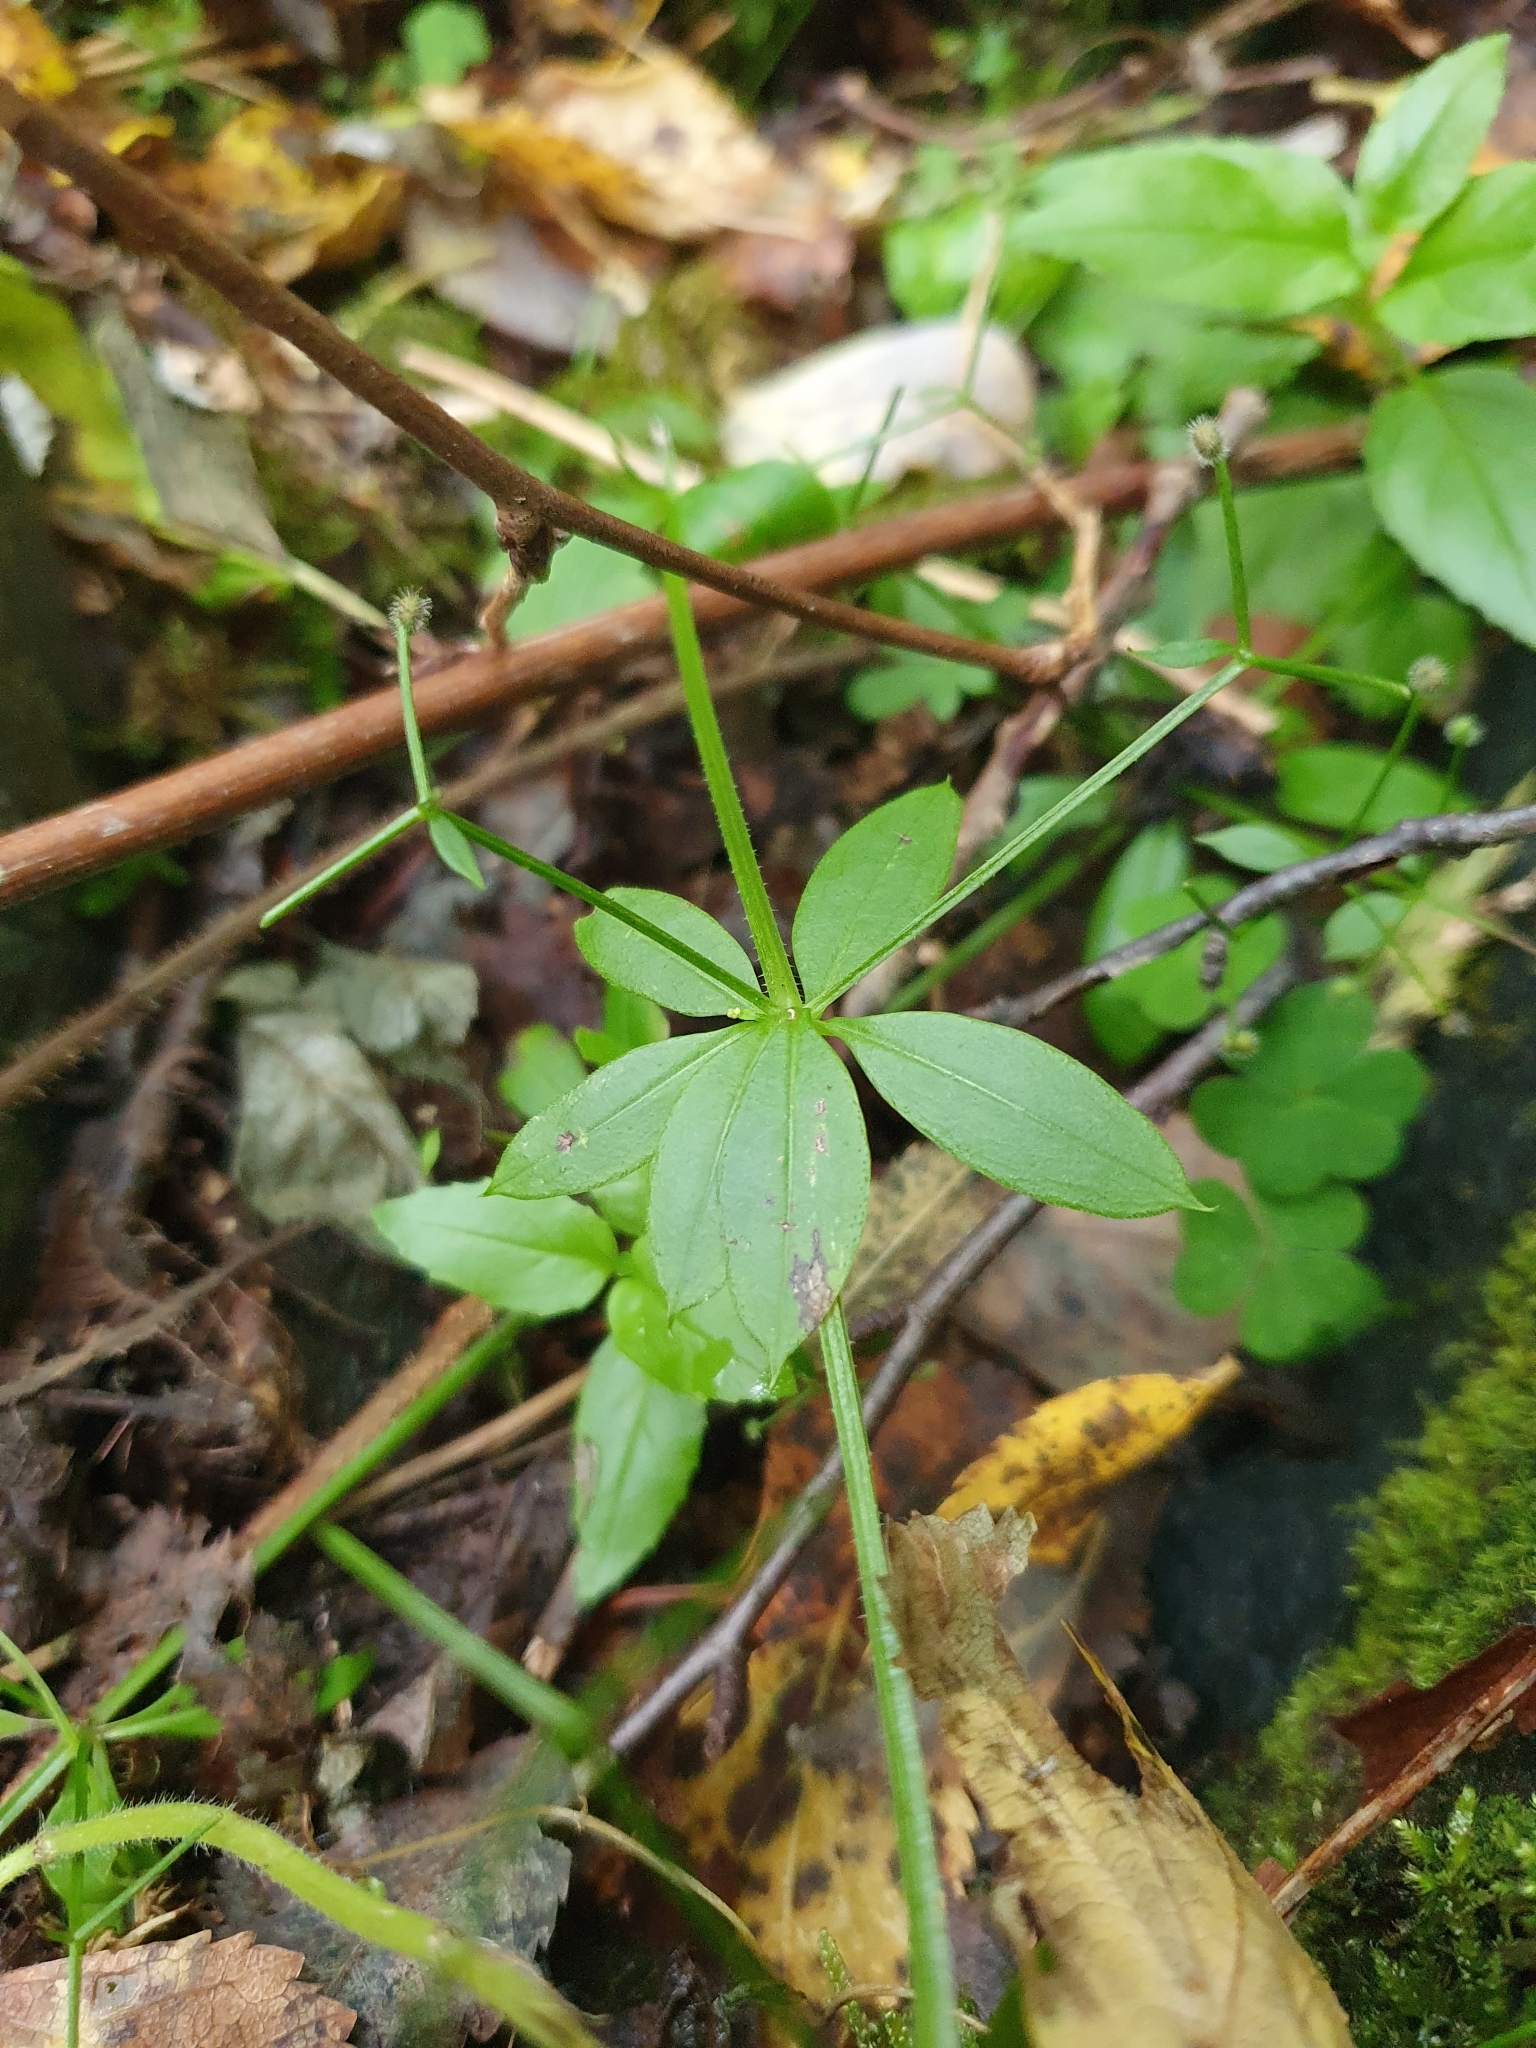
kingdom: Plantae
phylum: Tracheophyta
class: Magnoliopsida
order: Gentianales
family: Rubiaceae
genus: Galium
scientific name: Galium triflorum
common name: Fragrant bedstraw
